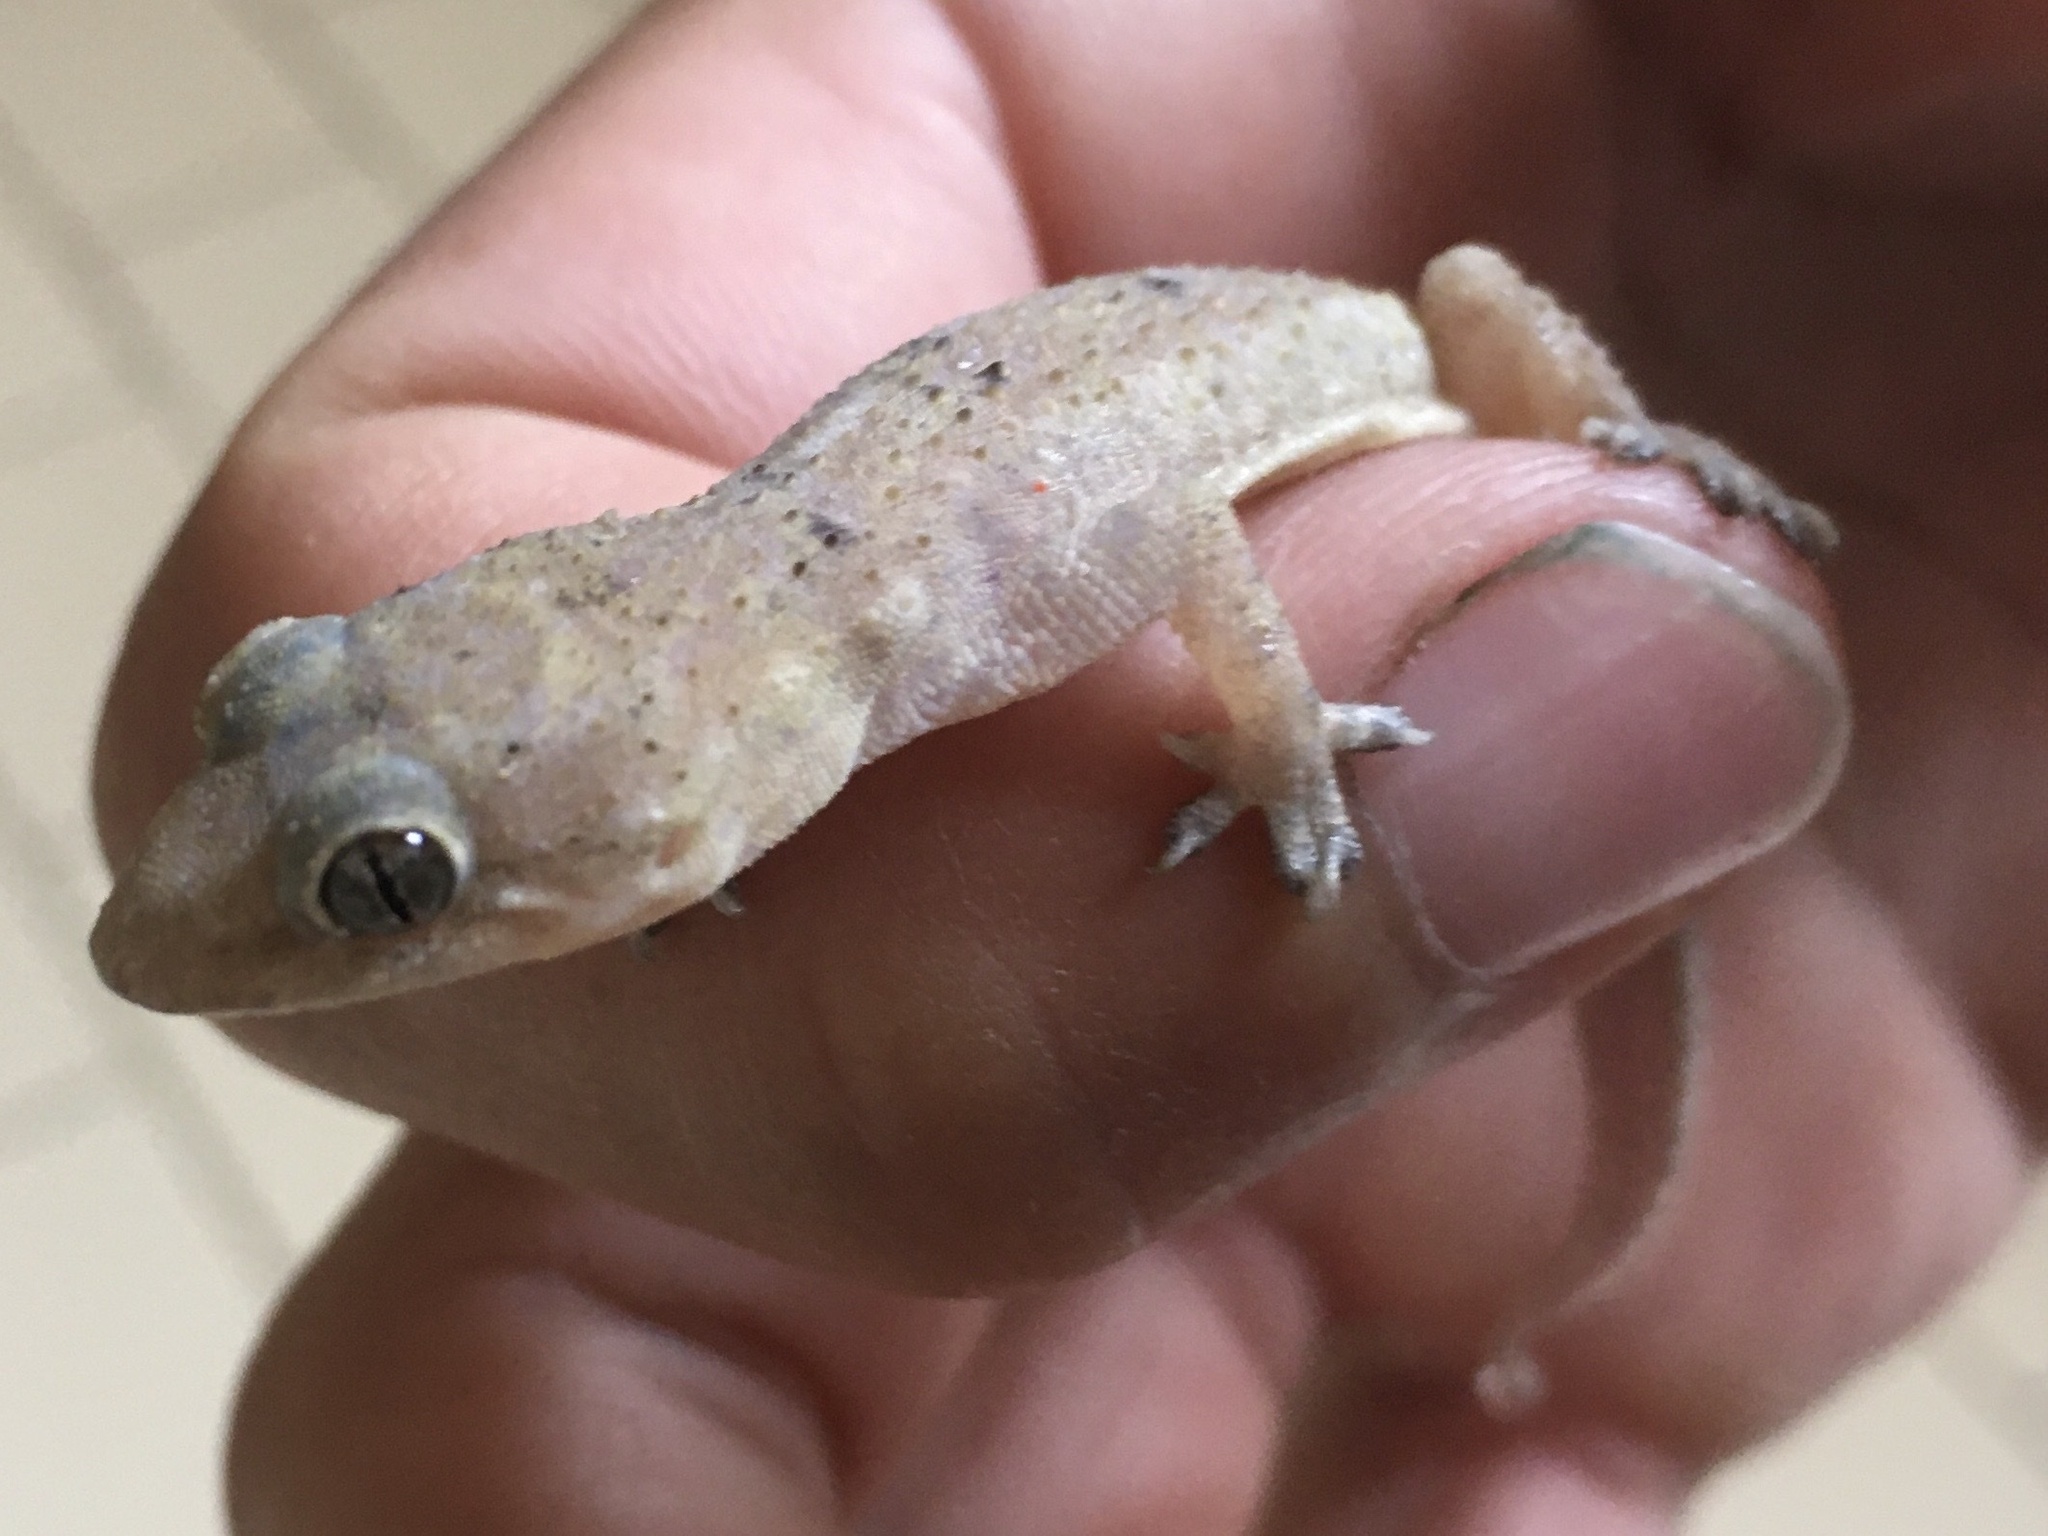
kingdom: Animalia
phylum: Chordata
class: Squamata
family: Gekkonidae
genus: Hemidactylus
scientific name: Hemidactylus mabouia
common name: House gecko
